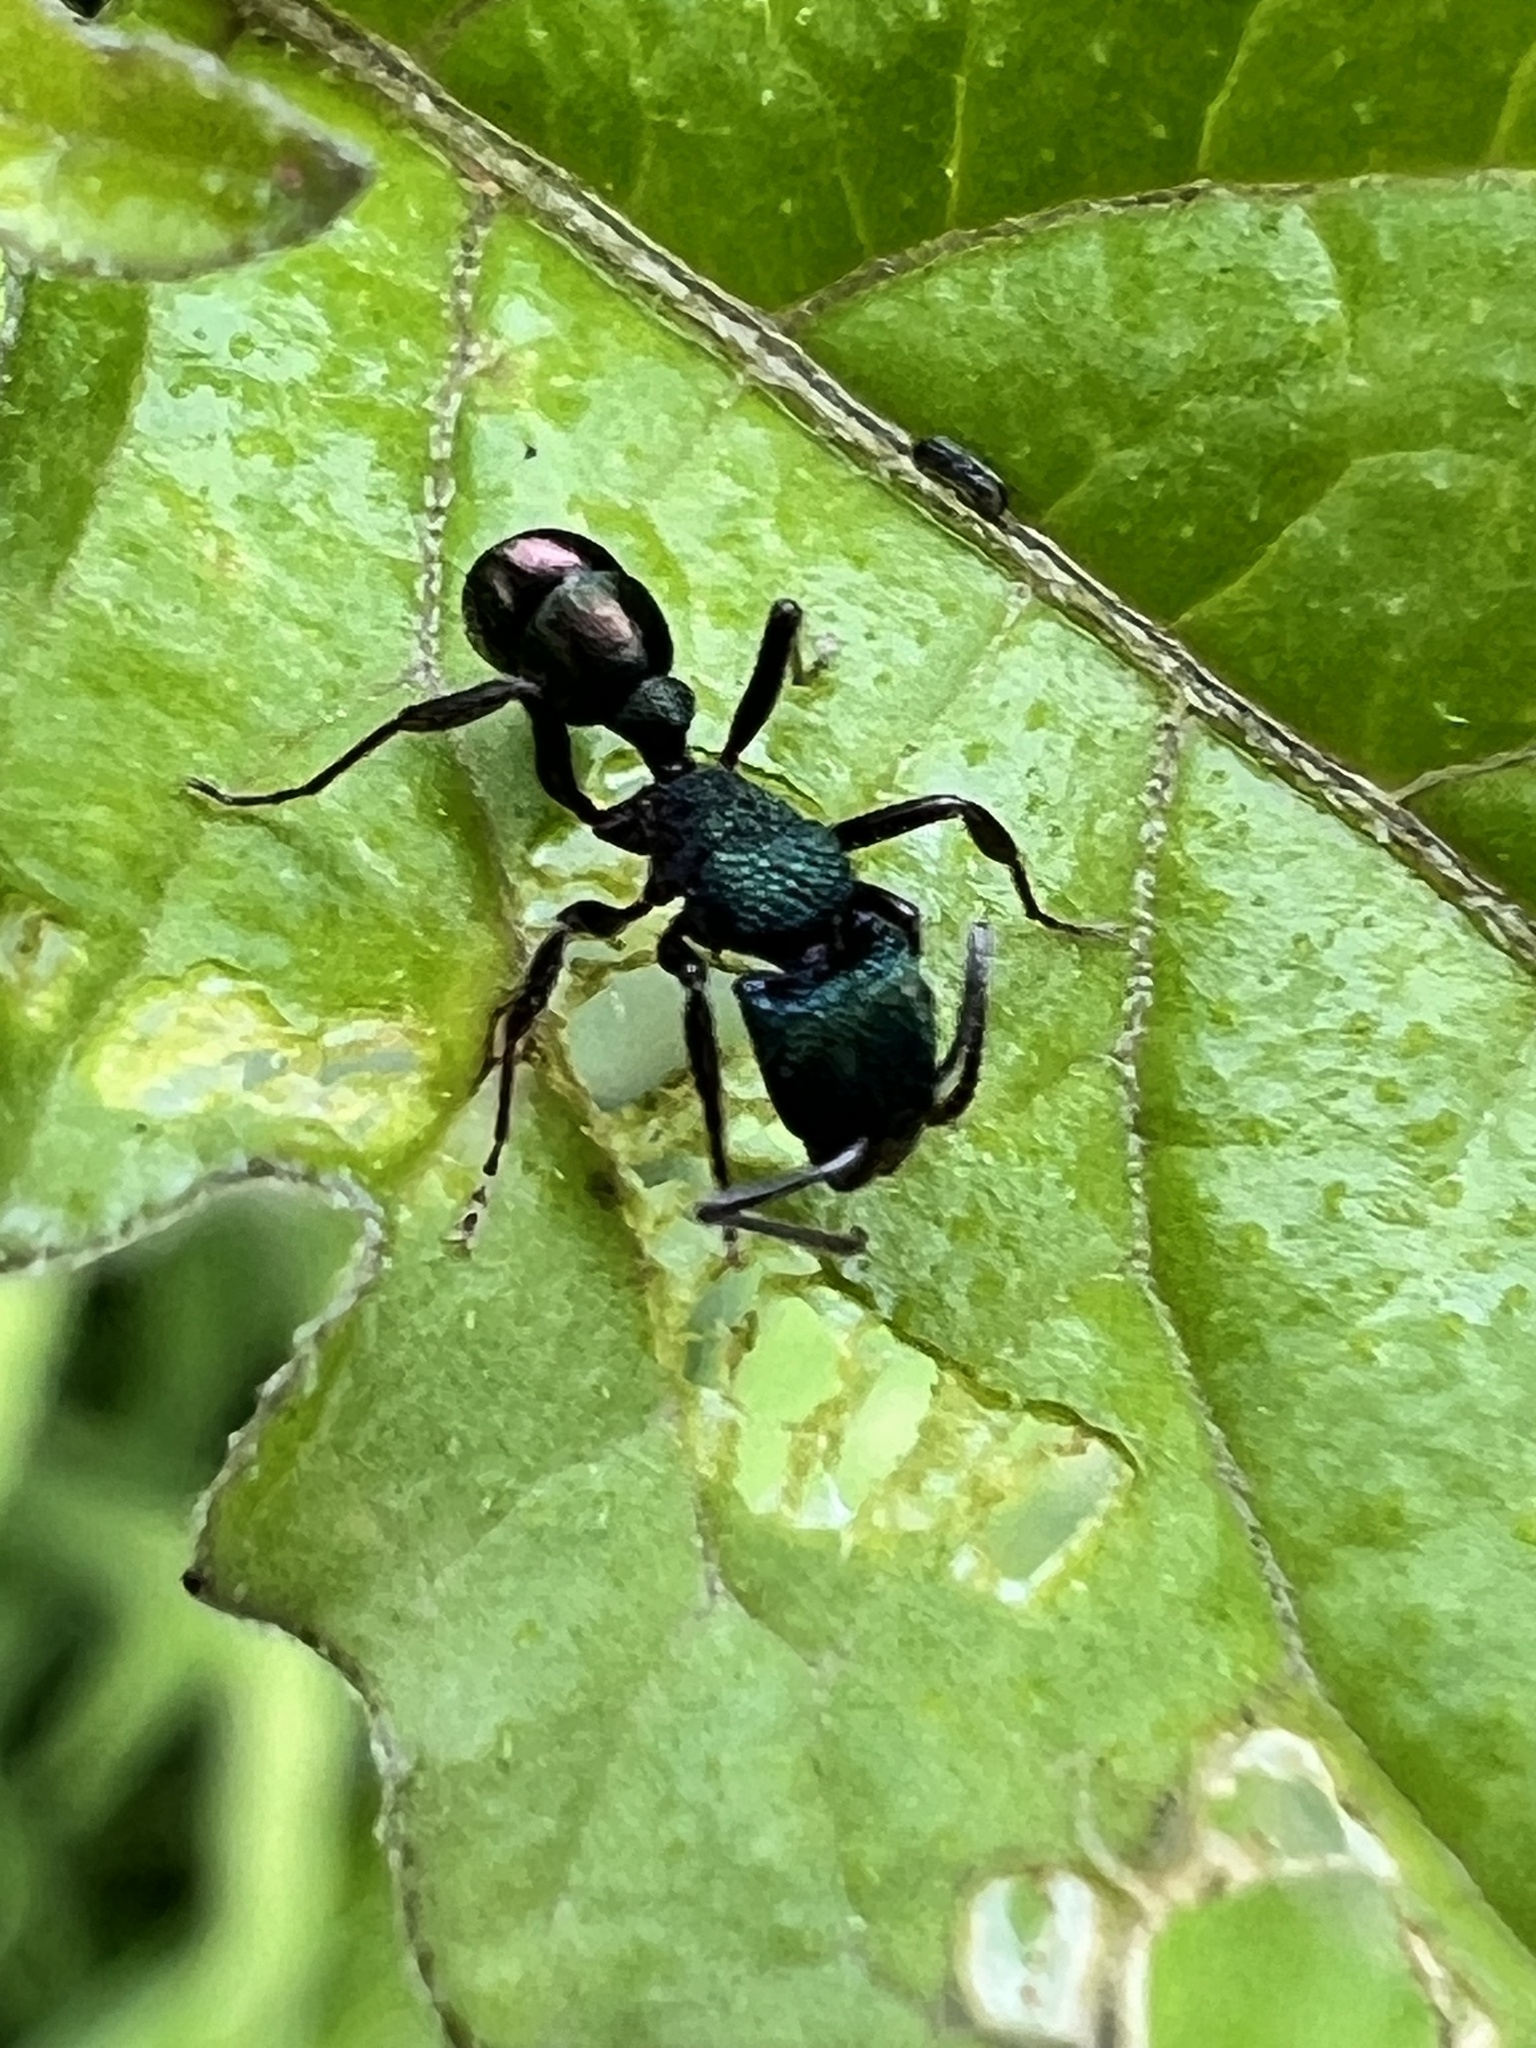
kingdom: Animalia
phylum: Arthropoda
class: Insecta
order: Hymenoptera
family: Formicidae
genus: Rhytidoponera
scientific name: Rhytidoponera metallica
